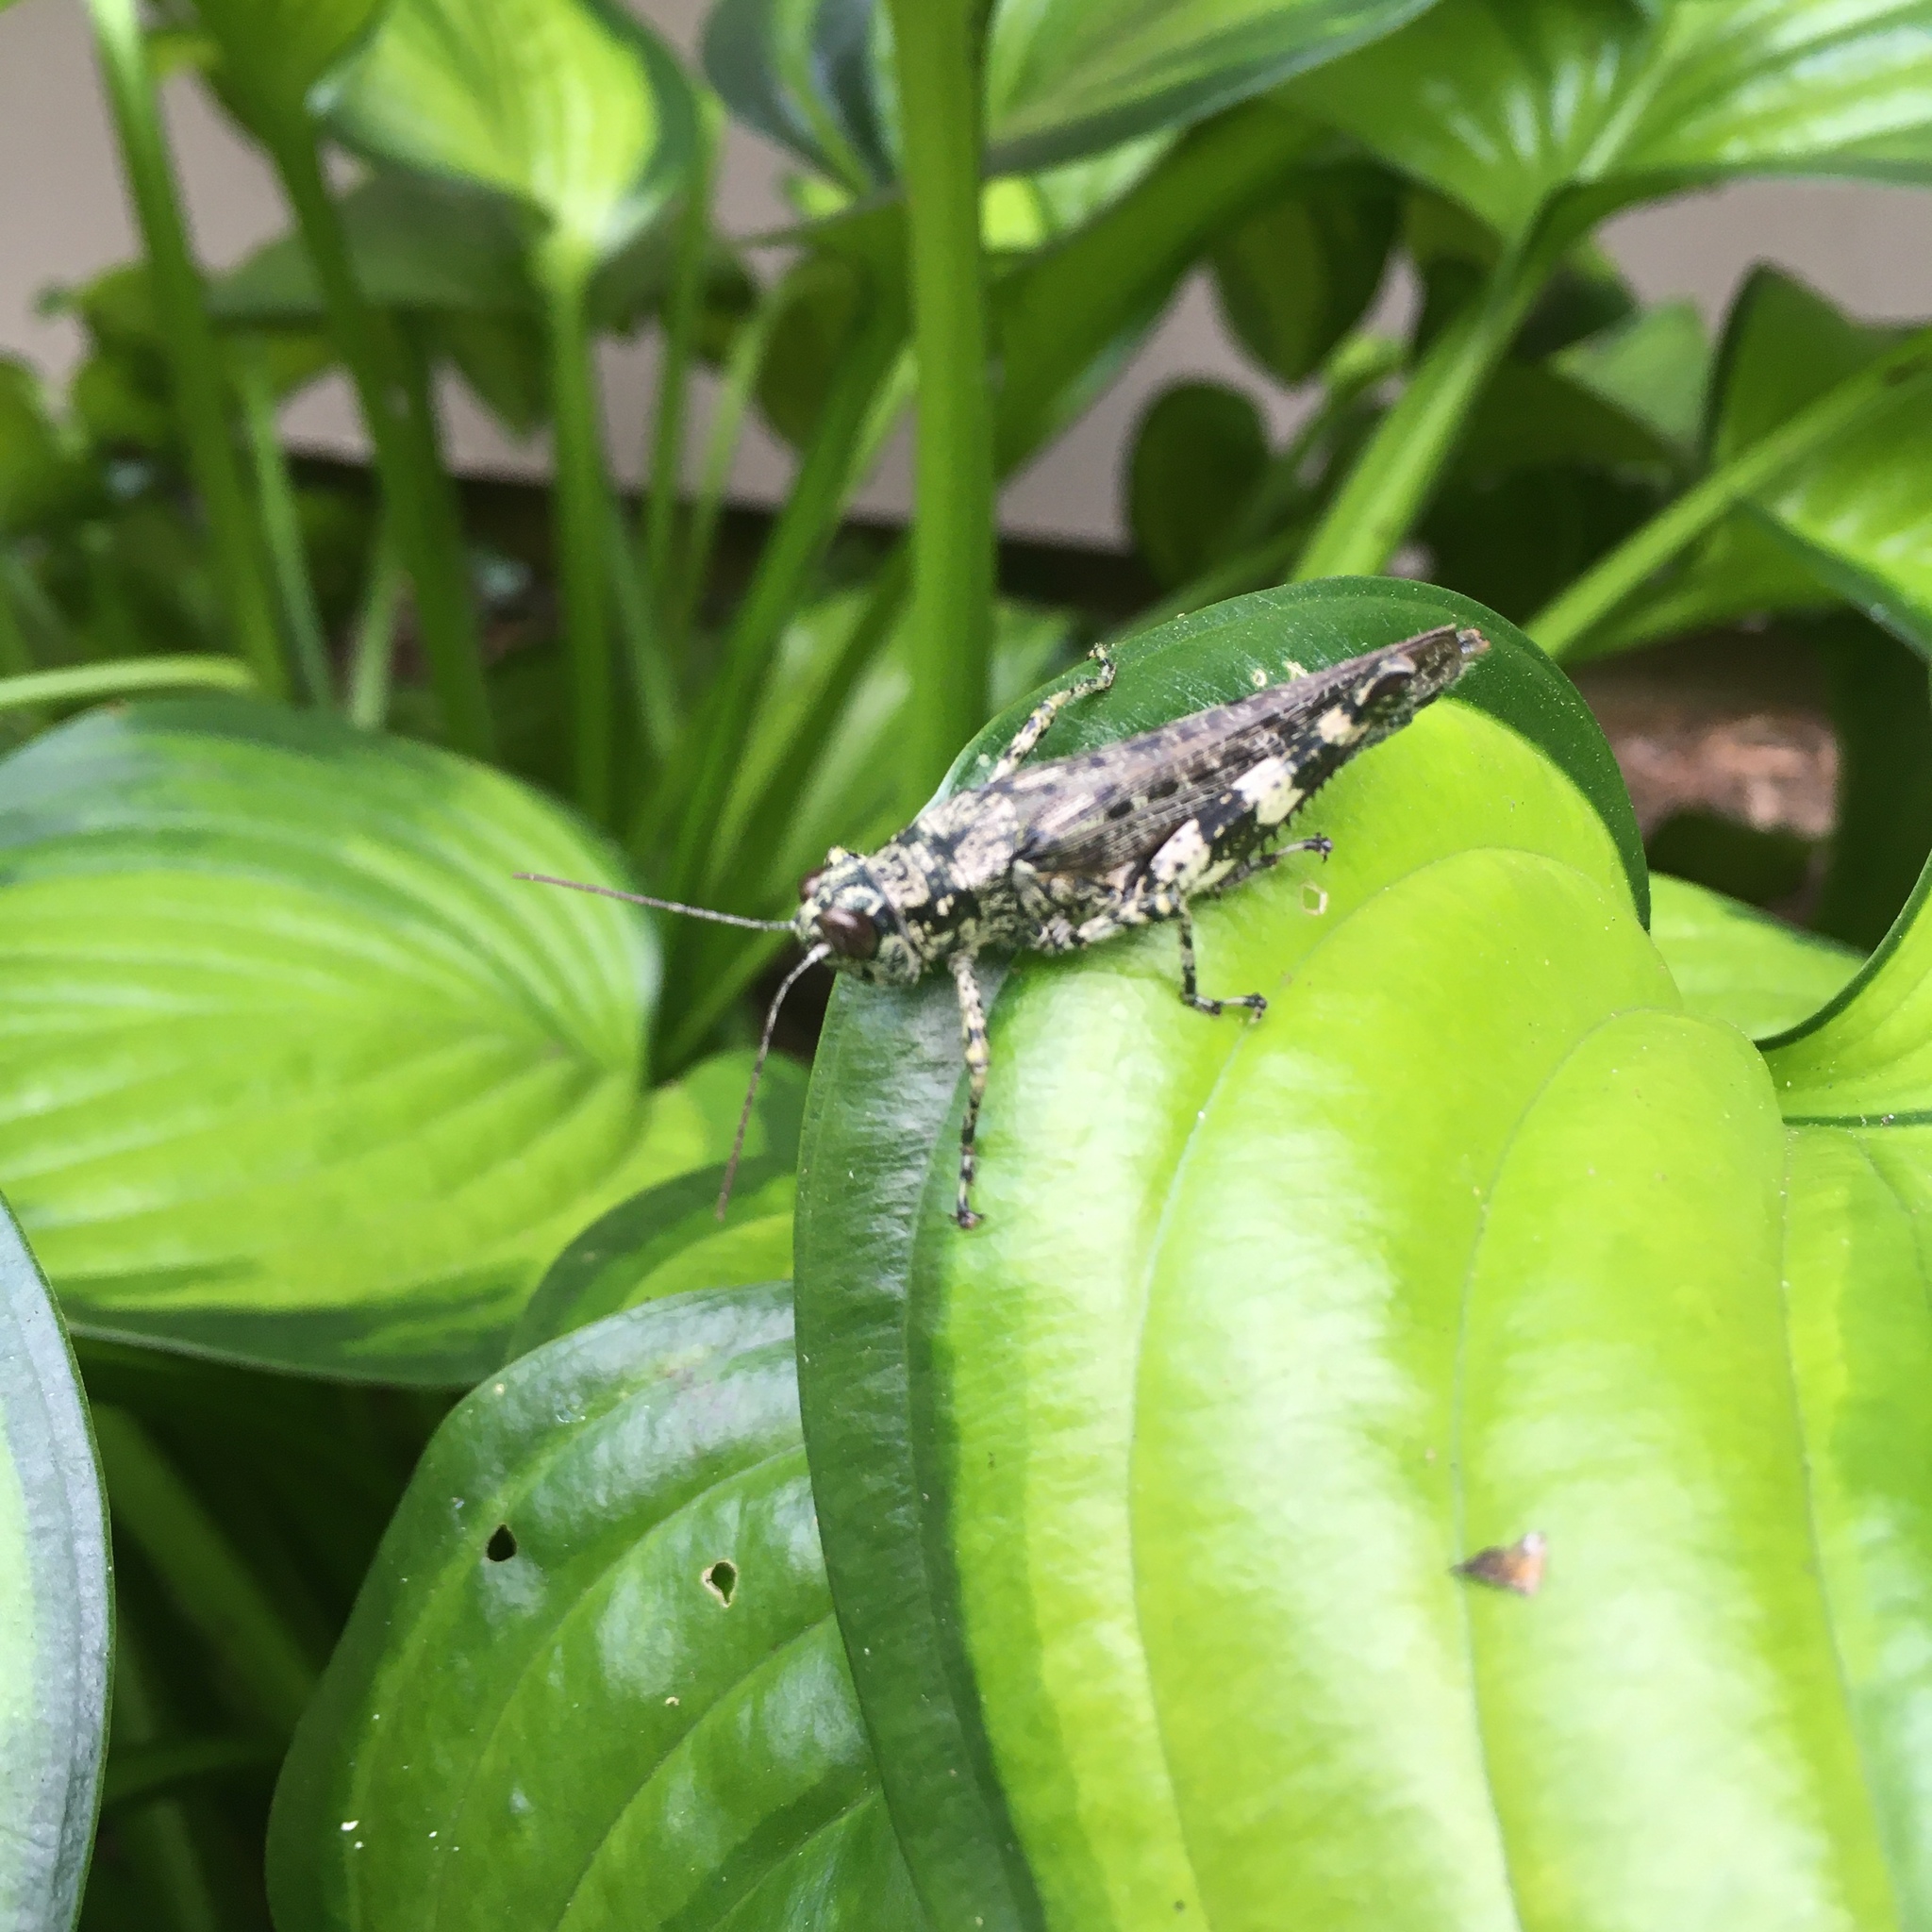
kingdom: Animalia
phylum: Arthropoda
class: Insecta
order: Orthoptera
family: Acrididae
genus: Melanoplus
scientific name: Melanoplus punctulatus
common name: Pine-tree spur-throat grasshopper
